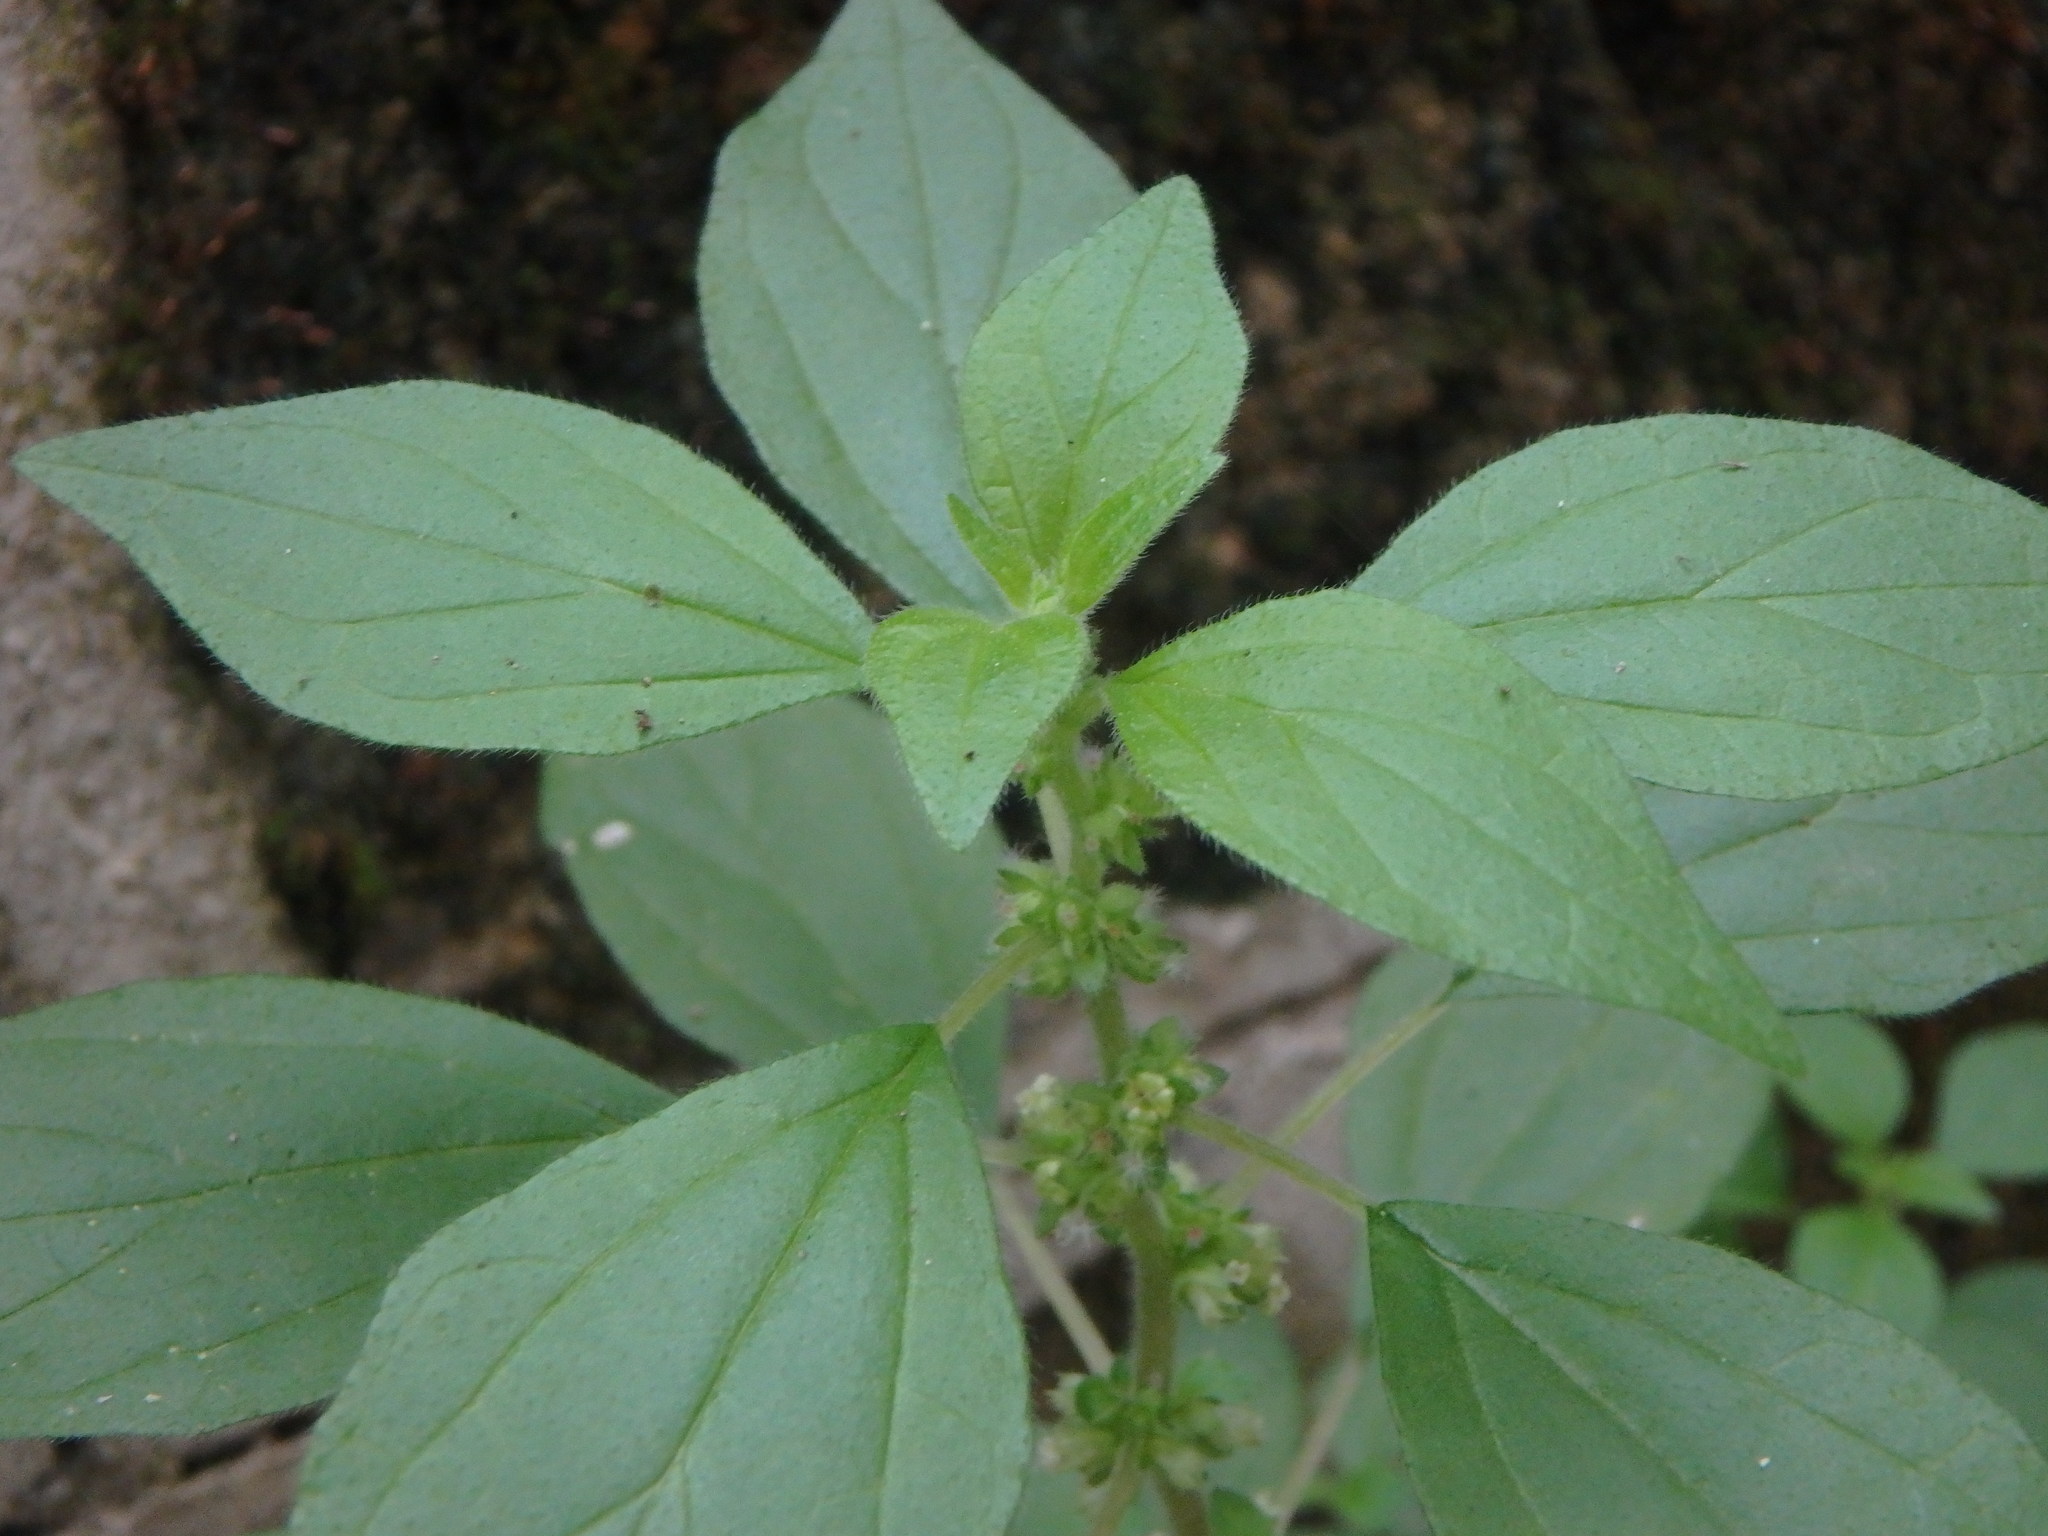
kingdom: Plantae
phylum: Tracheophyta
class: Magnoliopsida
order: Rosales
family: Urticaceae
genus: Parietaria
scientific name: Parietaria judaica
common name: Pellitory-of-the-wall
